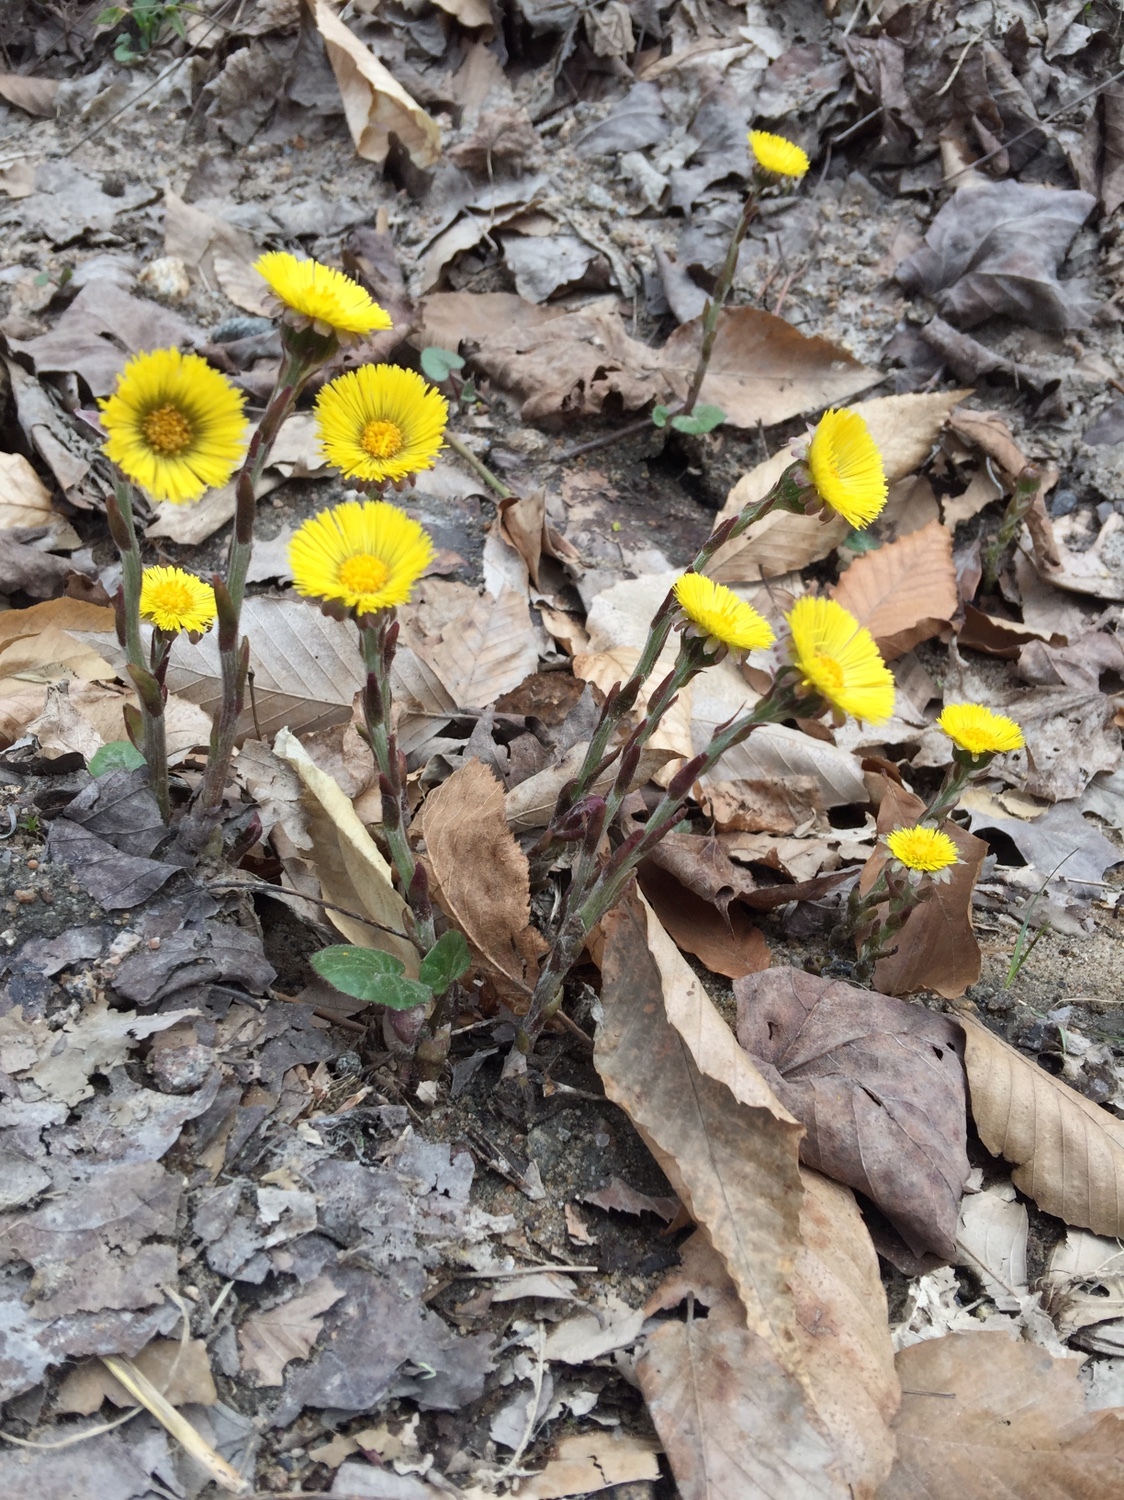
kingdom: Plantae
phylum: Tracheophyta
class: Magnoliopsida
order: Asterales
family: Asteraceae
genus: Tussilago
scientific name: Tussilago farfara
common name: Coltsfoot
